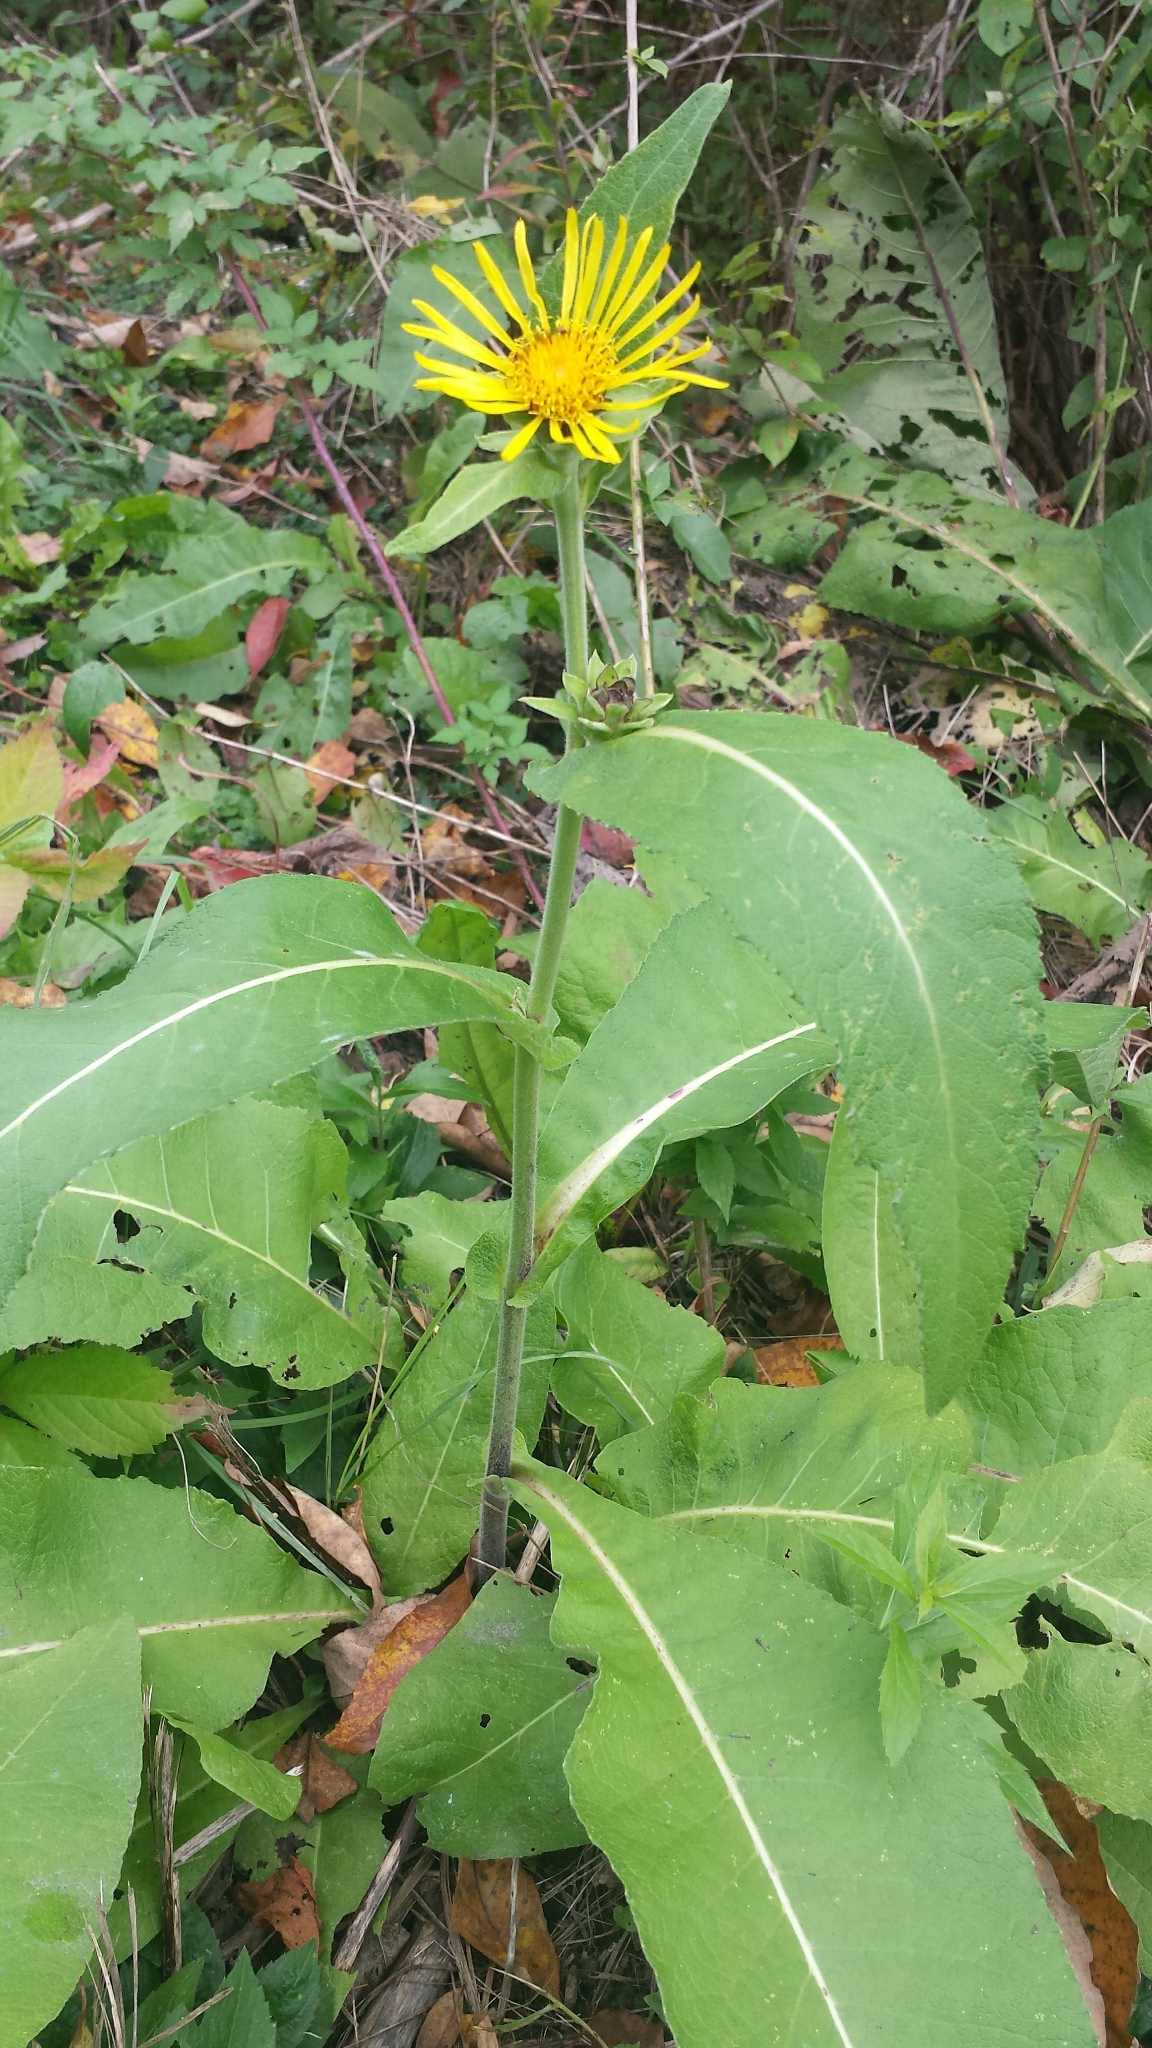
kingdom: Plantae
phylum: Tracheophyta
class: Magnoliopsida
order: Asterales
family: Asteraceae
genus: Inula
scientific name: Inula racemosa
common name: Indian elecampane
